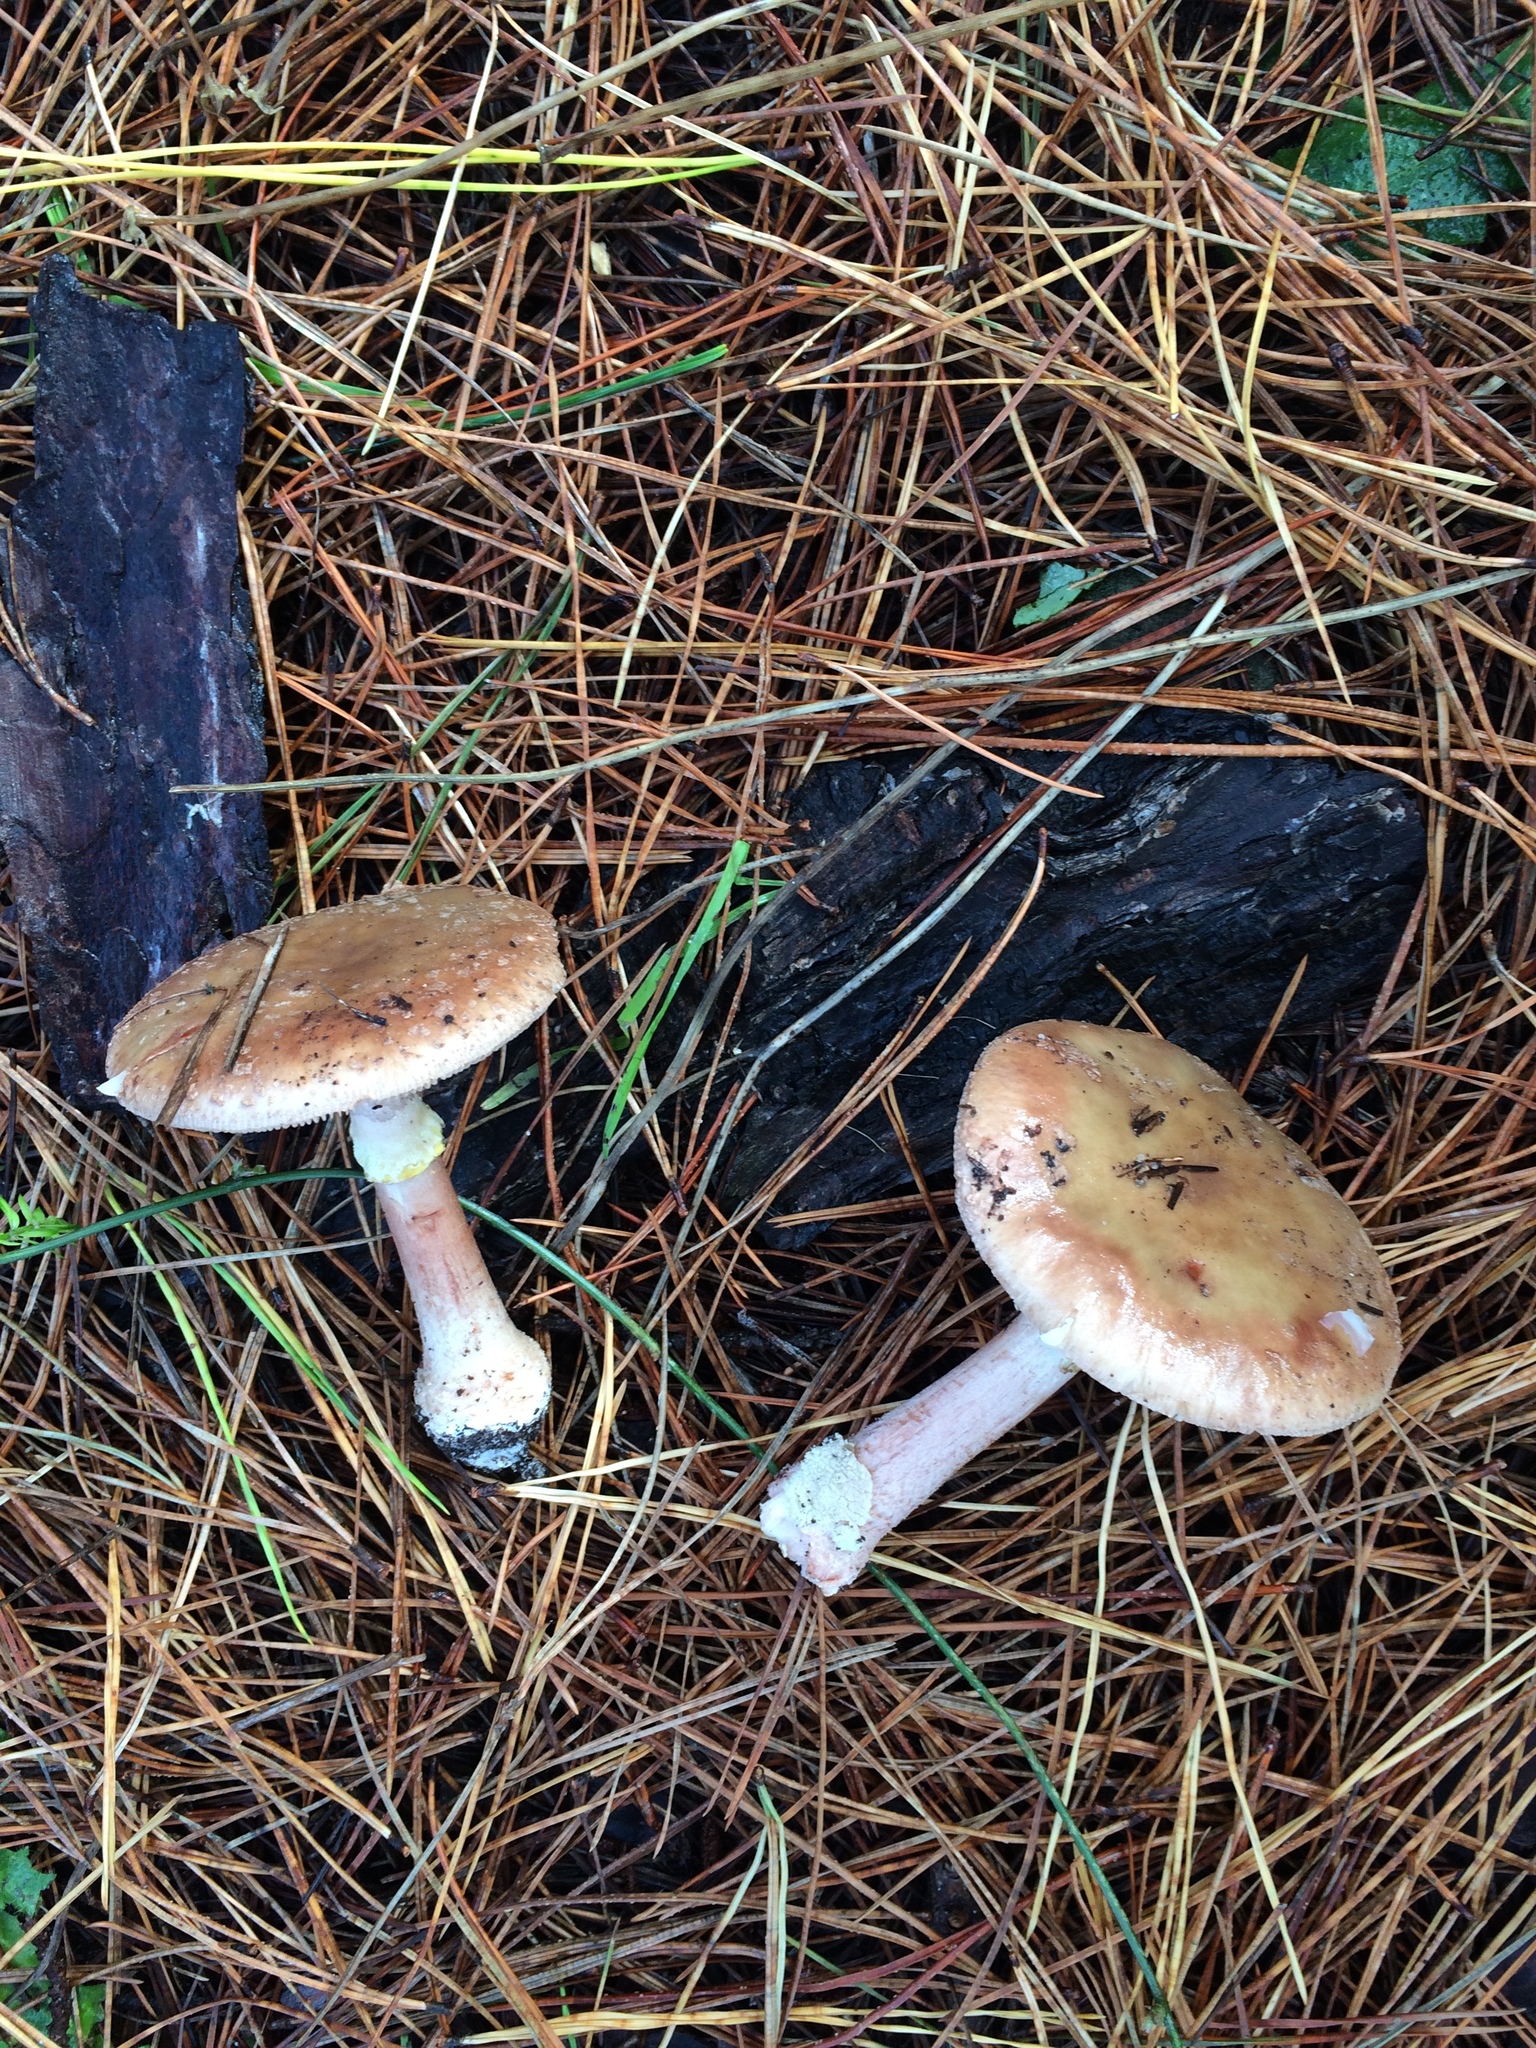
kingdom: Fungi
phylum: Basidiomycota
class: Agaricomycetes
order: Agaricales
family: Amanitaceae
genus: Amanita
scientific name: Amanita rubescens
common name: Blusher
